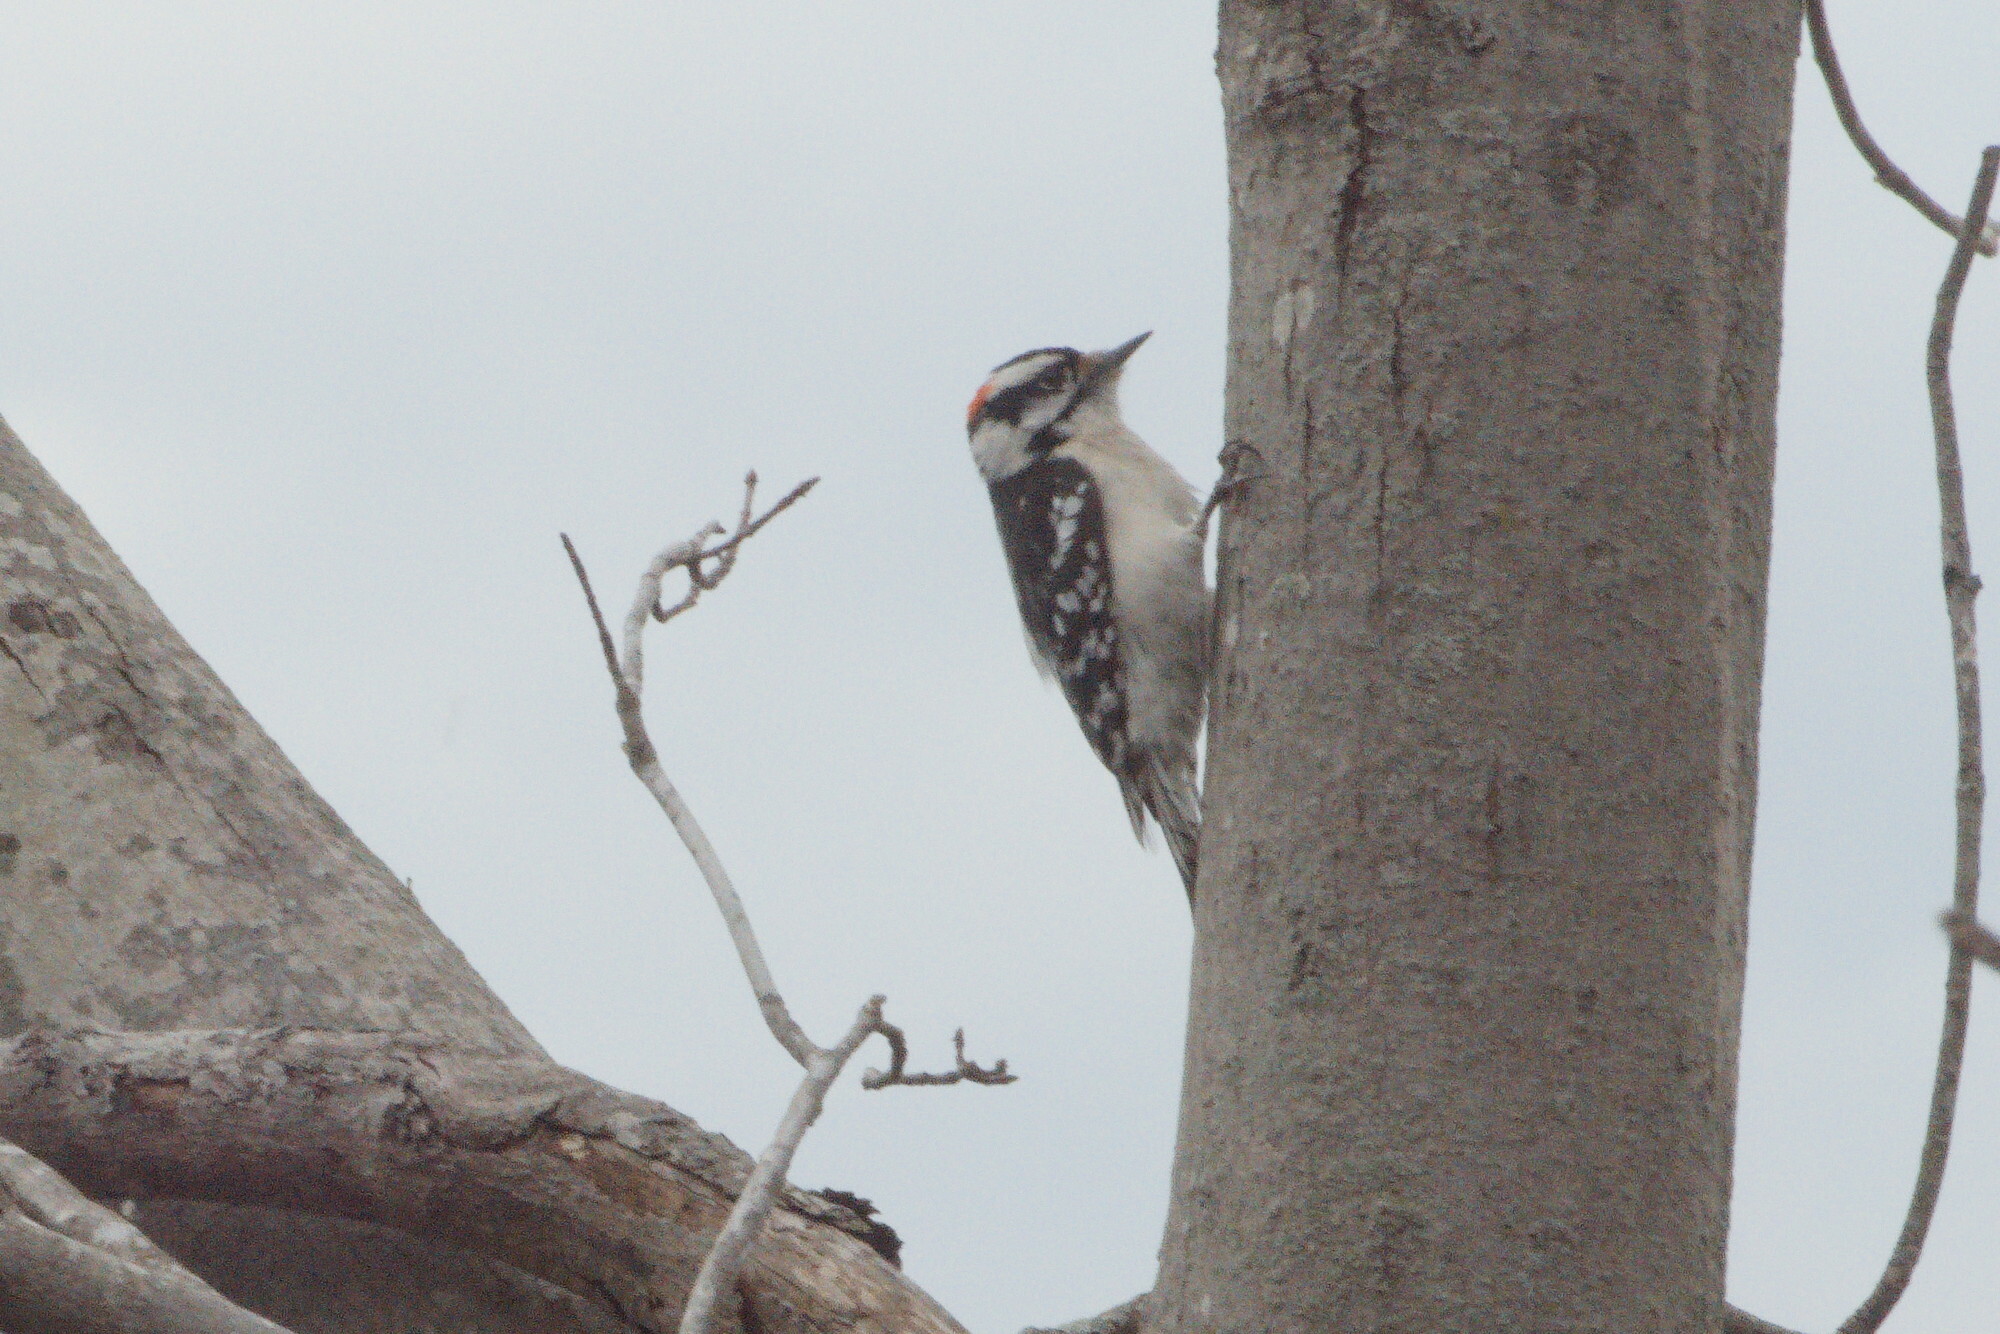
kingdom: Animalia
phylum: Chordata
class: Aves
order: Piciformes
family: Picidae
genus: Dryobates
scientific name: Dryobates pubescens
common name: Downy woodpecker
